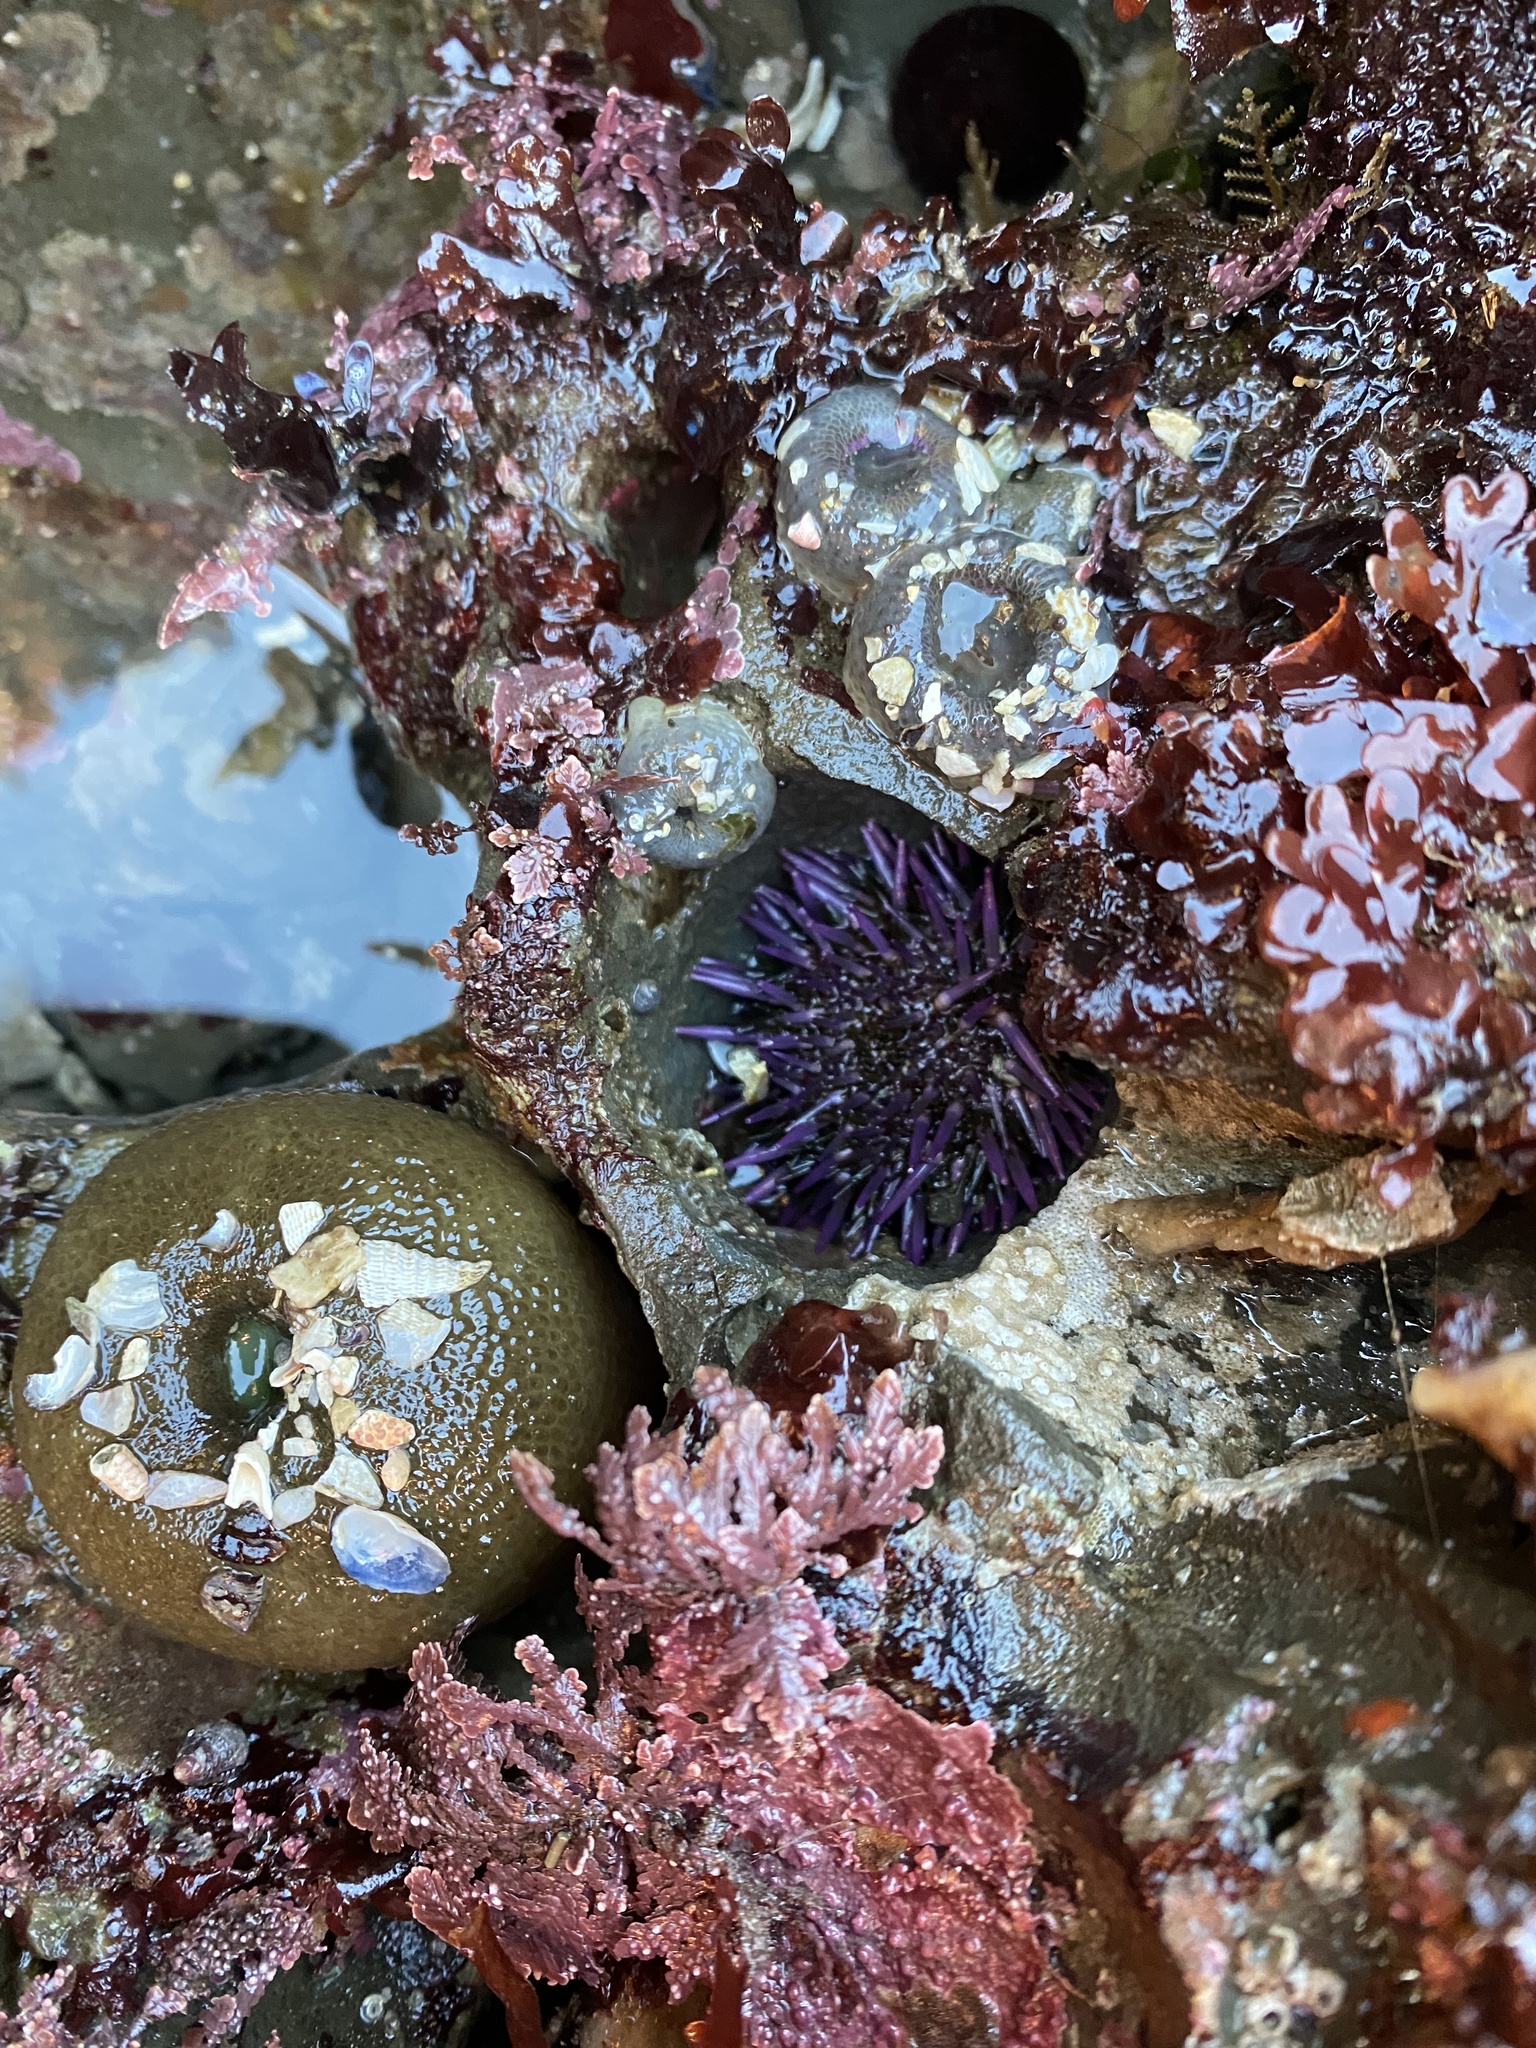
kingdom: Animalia
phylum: Echinodermata
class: Echinoidea
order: Camarodonta
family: Strongylocentrotidae
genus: Strongylocentrotus
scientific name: Strongylocentrotus purpuratus
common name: Purple sea urchin
